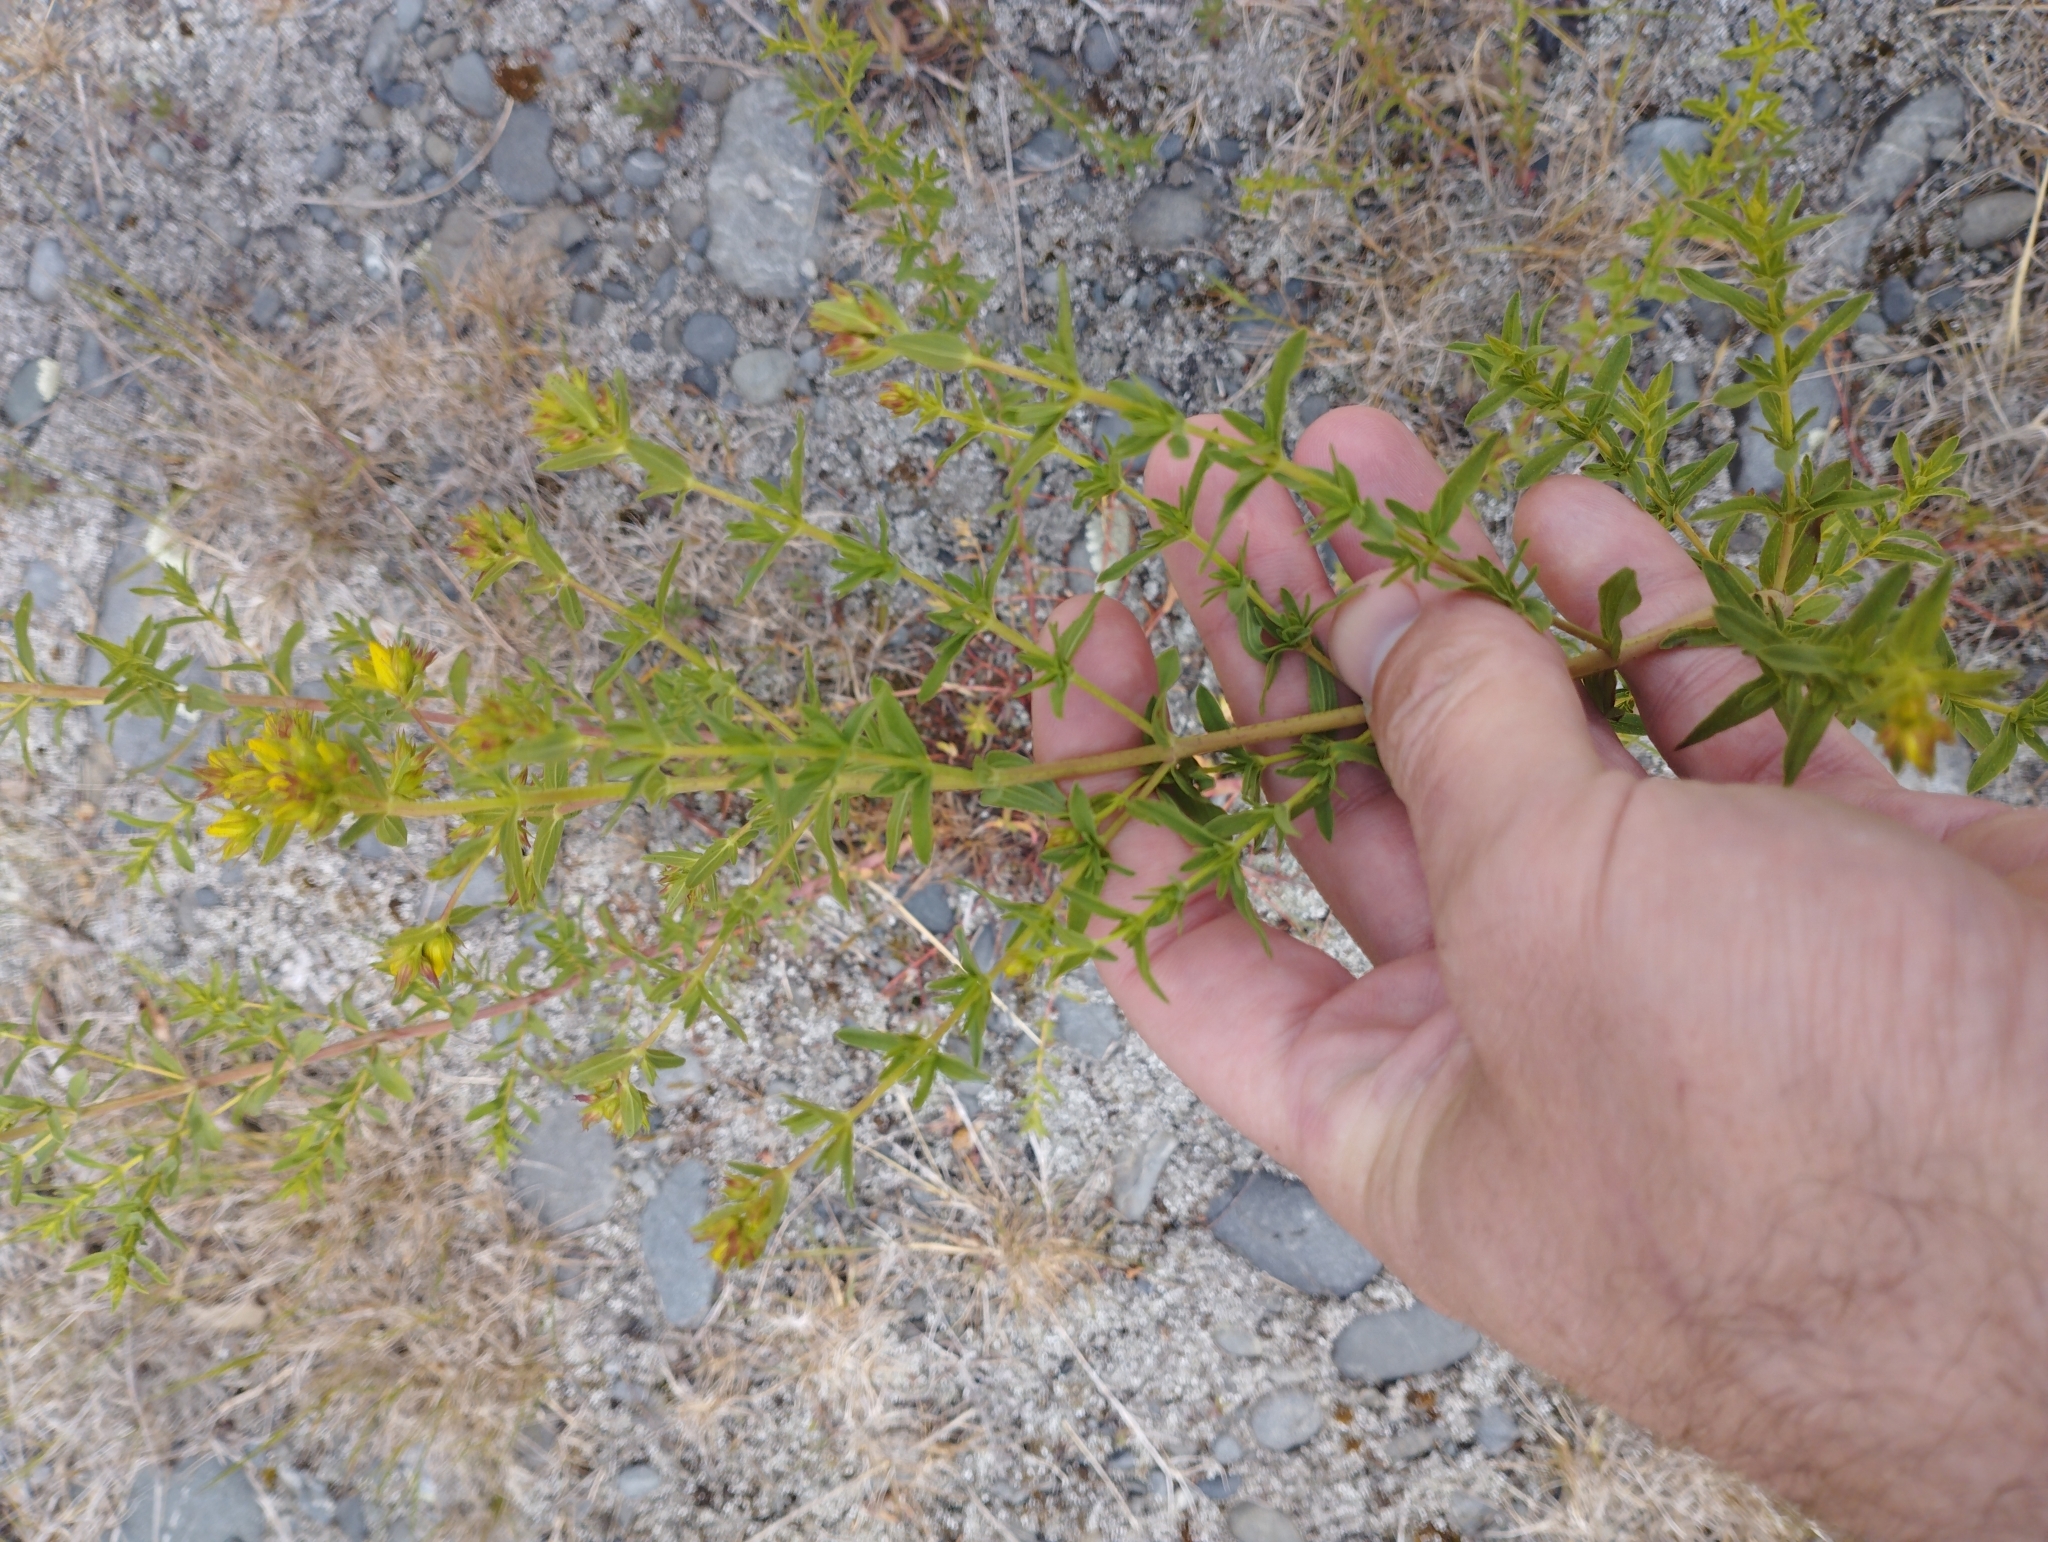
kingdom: Plantae
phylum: Tracheophyta
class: Magnoliopsida
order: Malpighiales
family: Hypericaceae
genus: Hypericum
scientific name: Hypericum perforatum
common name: Common st. johnswort
